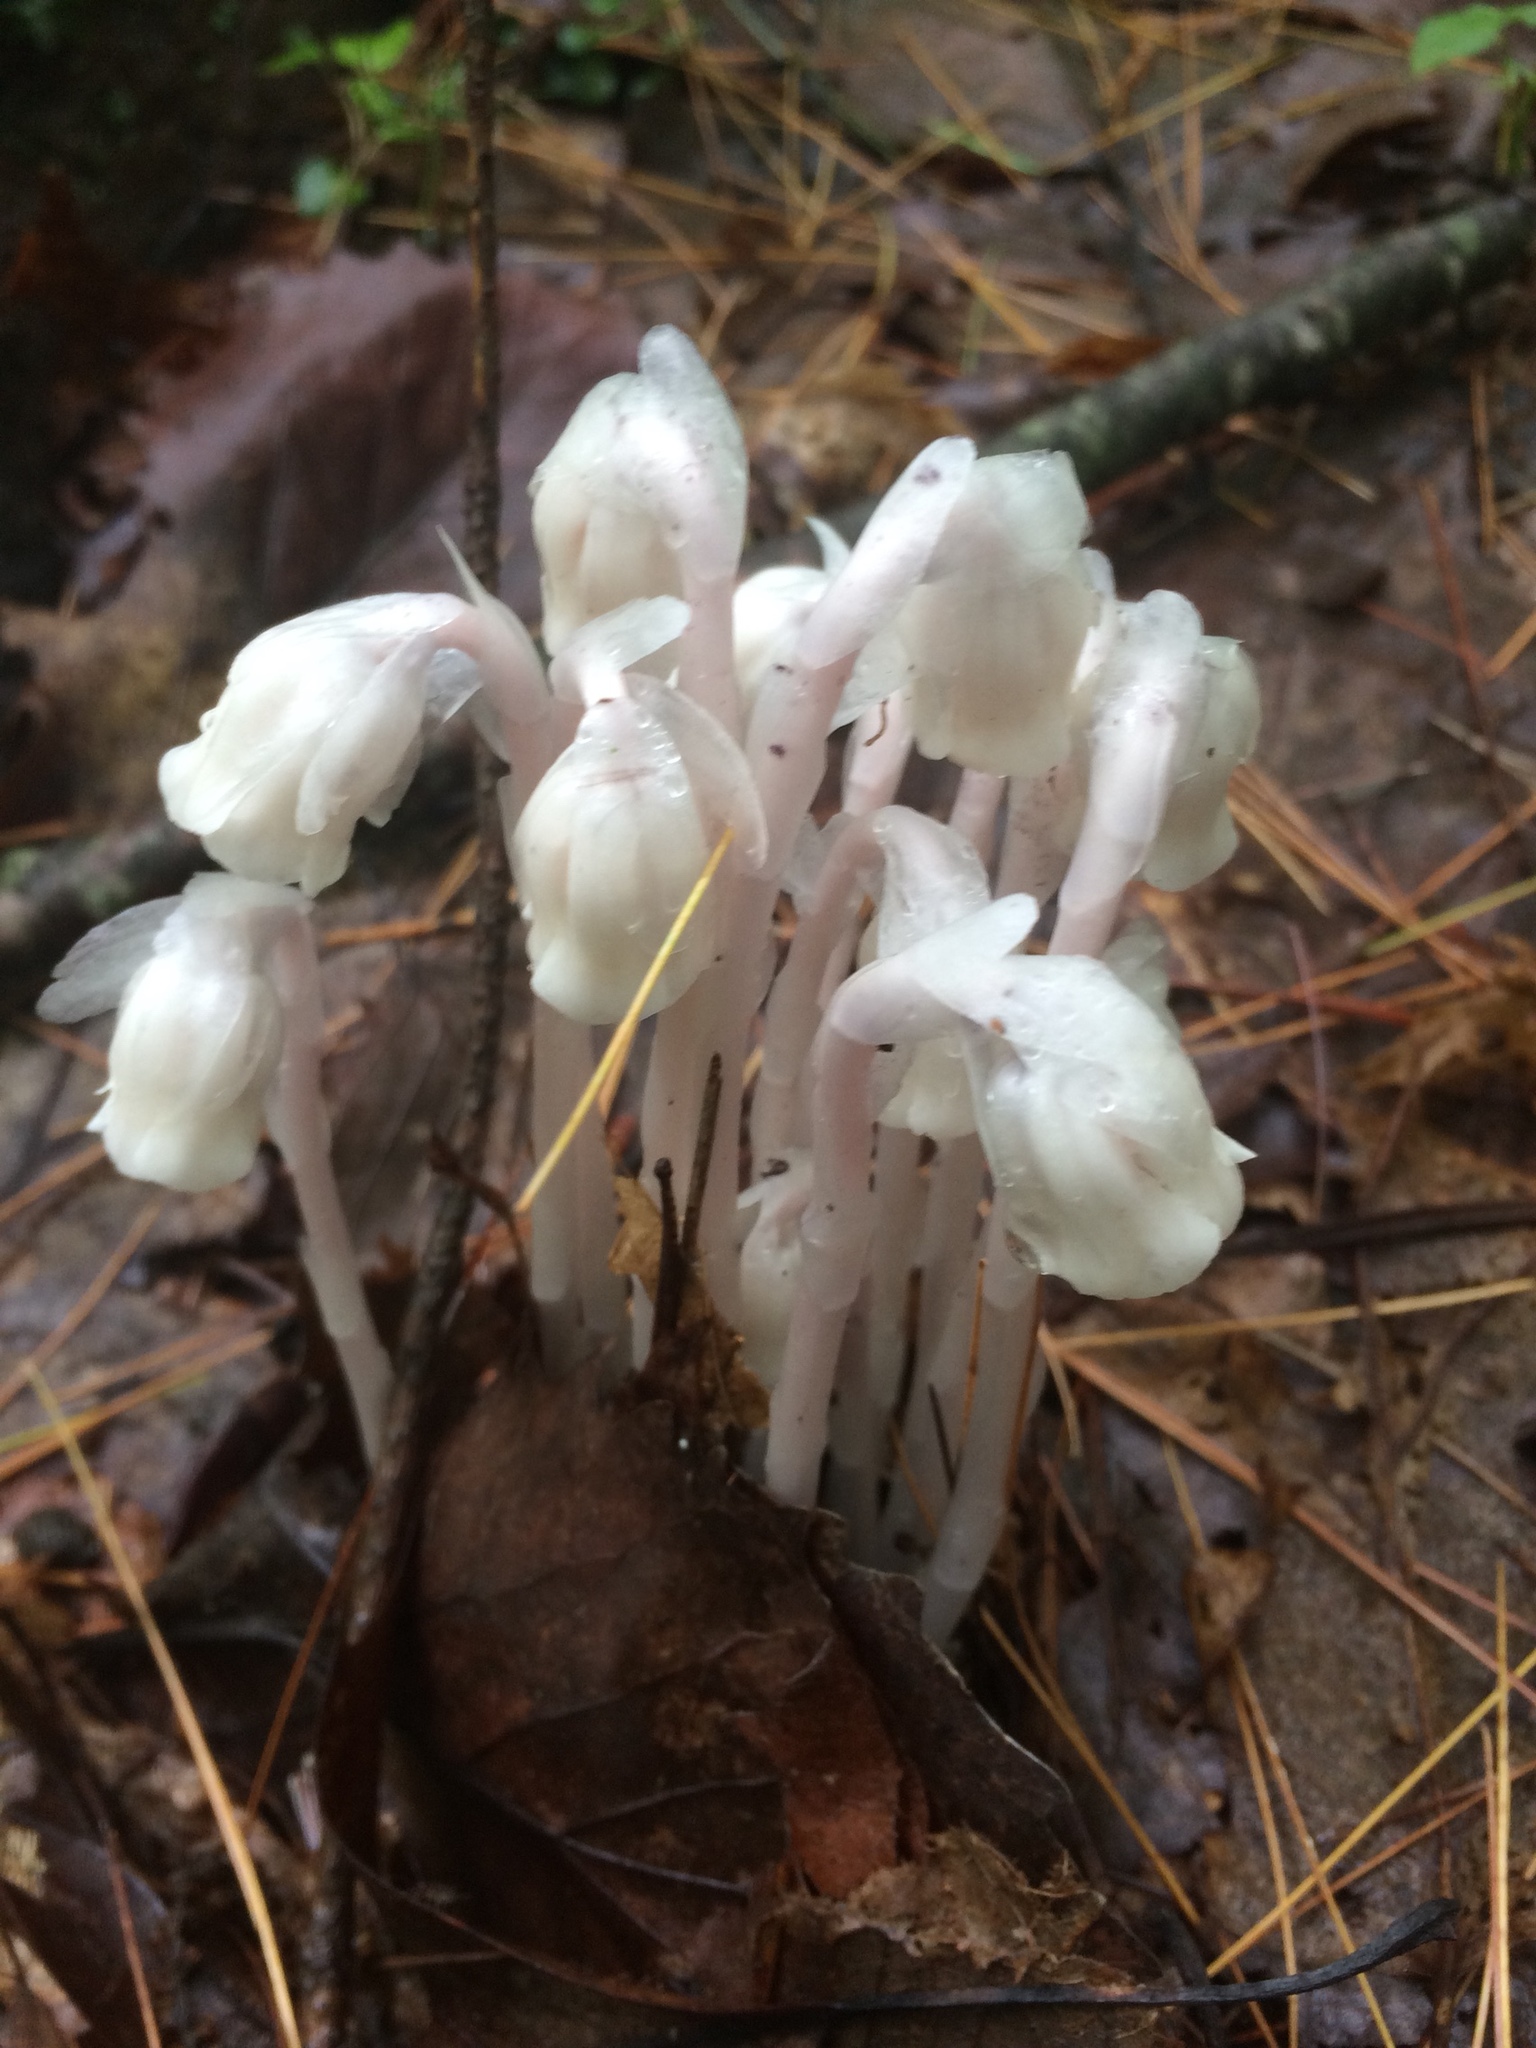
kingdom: Plantae
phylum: Tracheophyta
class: Magnoliopsida
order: Ericales
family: Ericaceae
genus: Monotropa
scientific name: Monotropa uniflora
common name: Convulsion root
